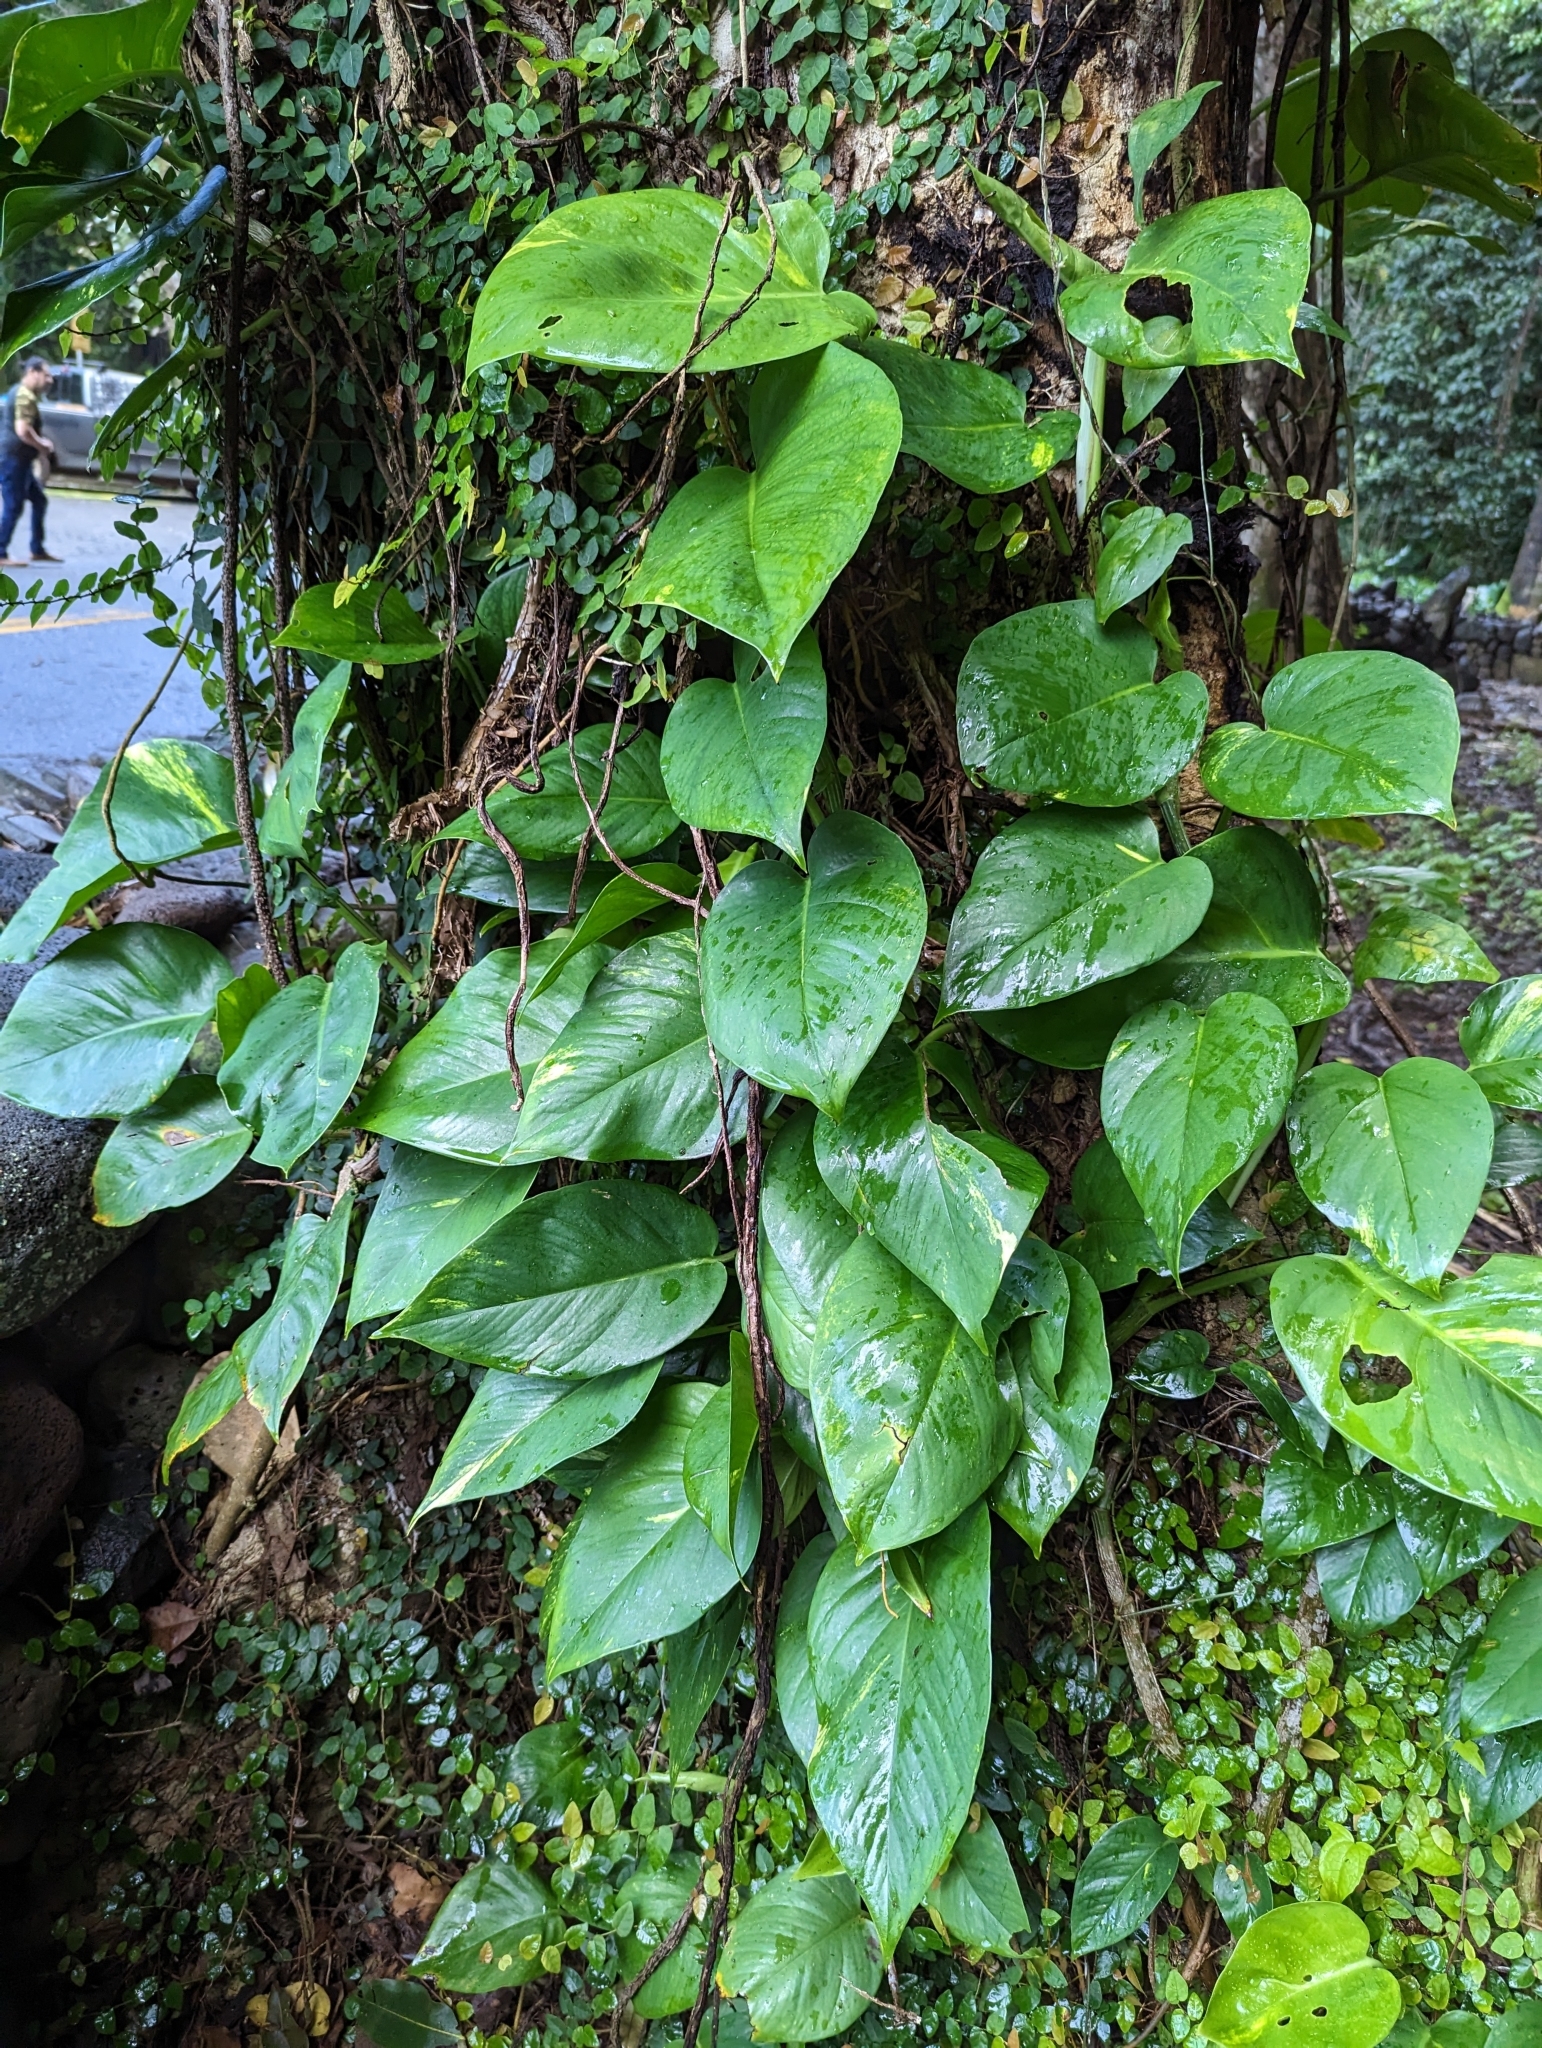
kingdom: Plantae
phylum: Tracheophyta
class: Liliopsida
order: Alismatales
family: Araceae
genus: Epipremnum
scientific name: Epipremnum aureum
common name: Golden hunter's-robe
